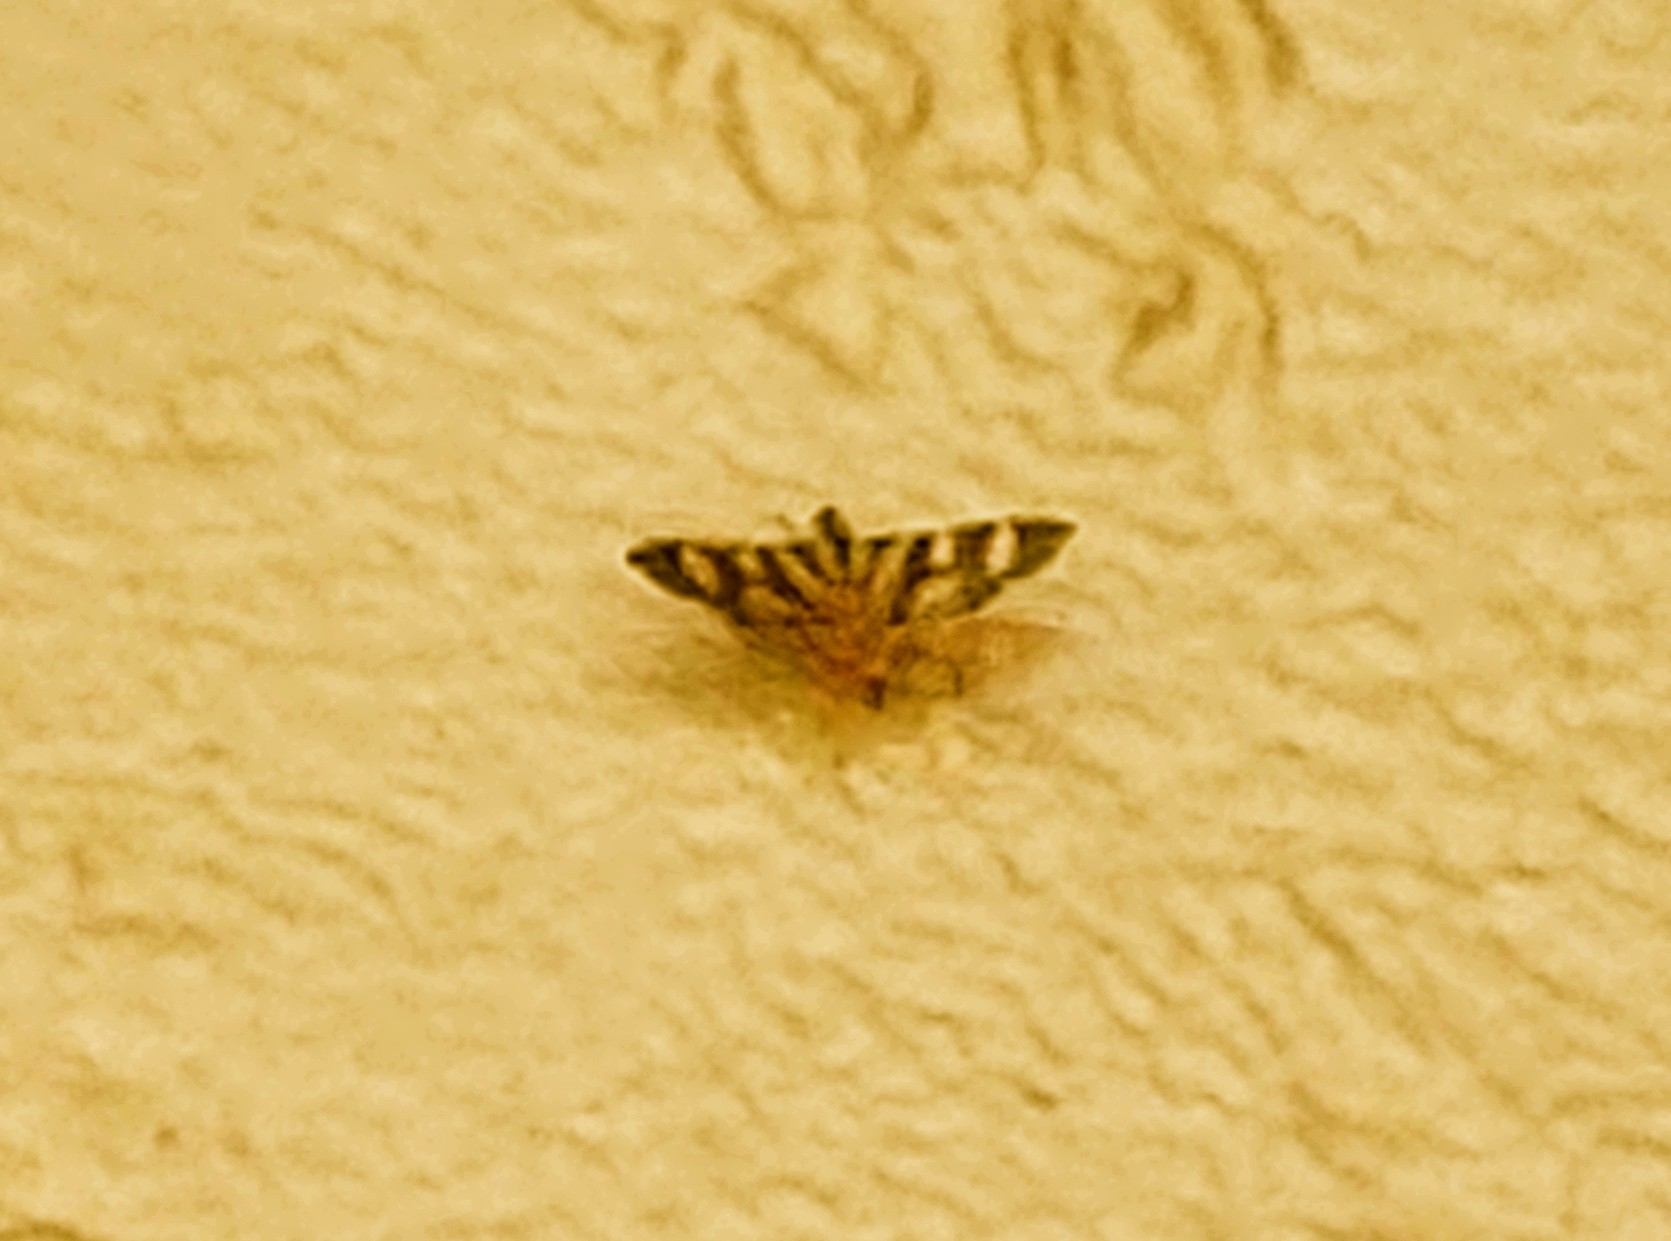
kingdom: Animalia
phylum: Arthropoda
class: Insecta
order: Lepidoptera
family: Crambidae
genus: Syngamia
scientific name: Syngamia florella
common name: Orange-spotted flower moth
